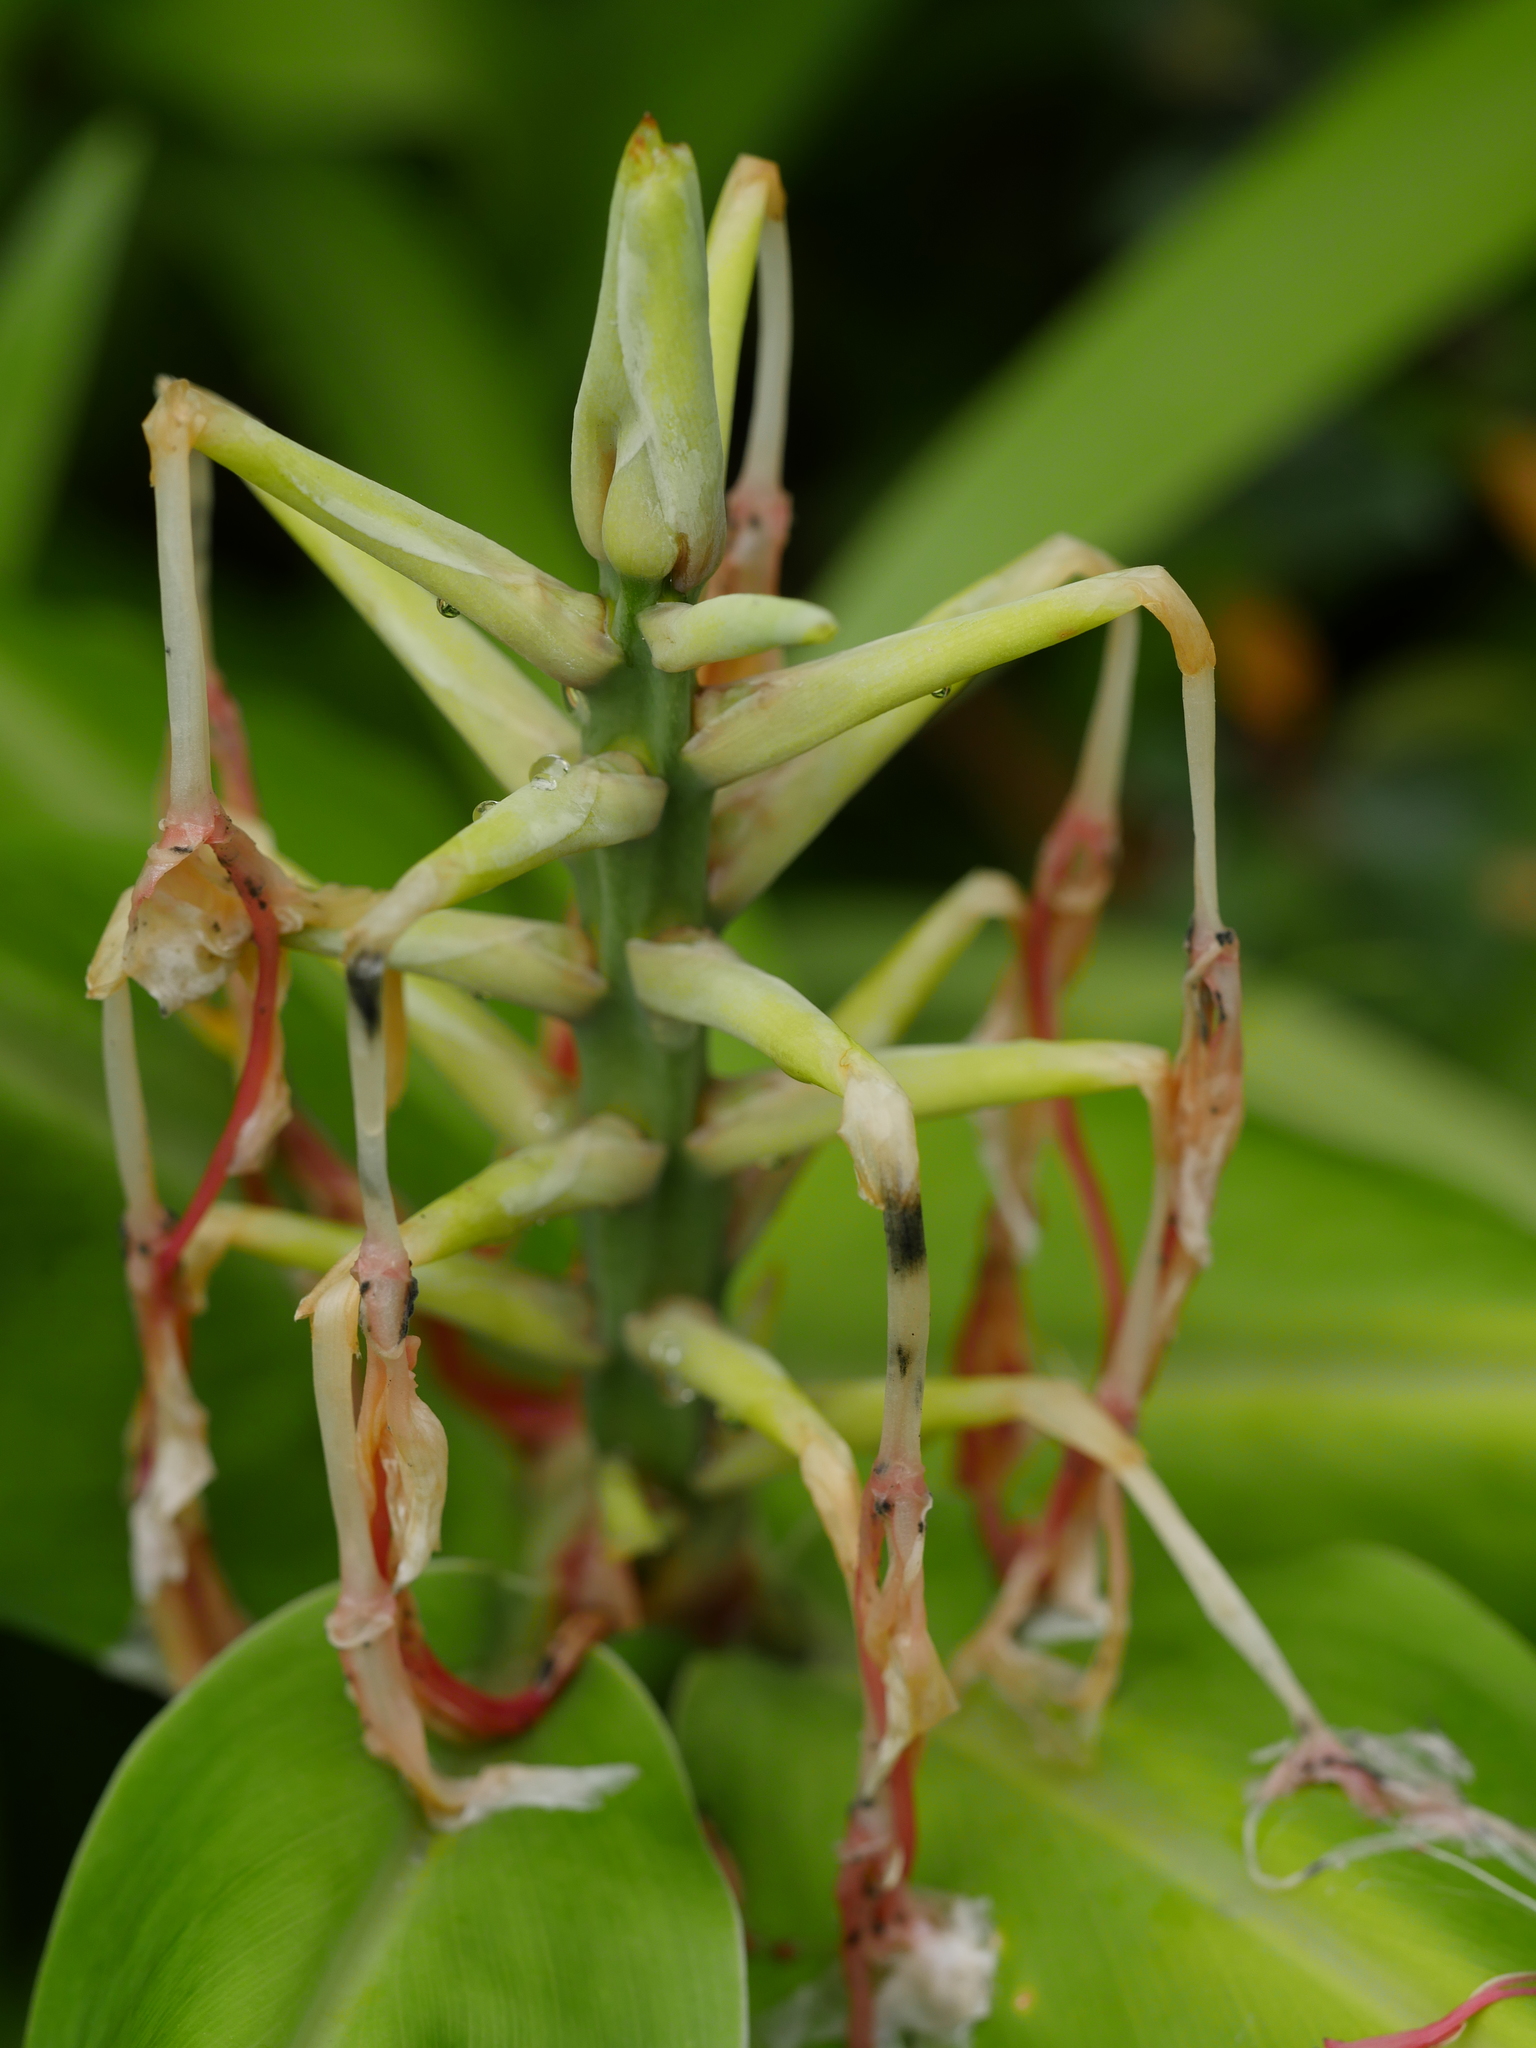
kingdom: Plantae
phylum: Tracheophyta
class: Liliopsida
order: Zingiberales
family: Zingiberaceae
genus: Hedychium
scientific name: Hedychium gardnerianum
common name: Himalayan ginger
